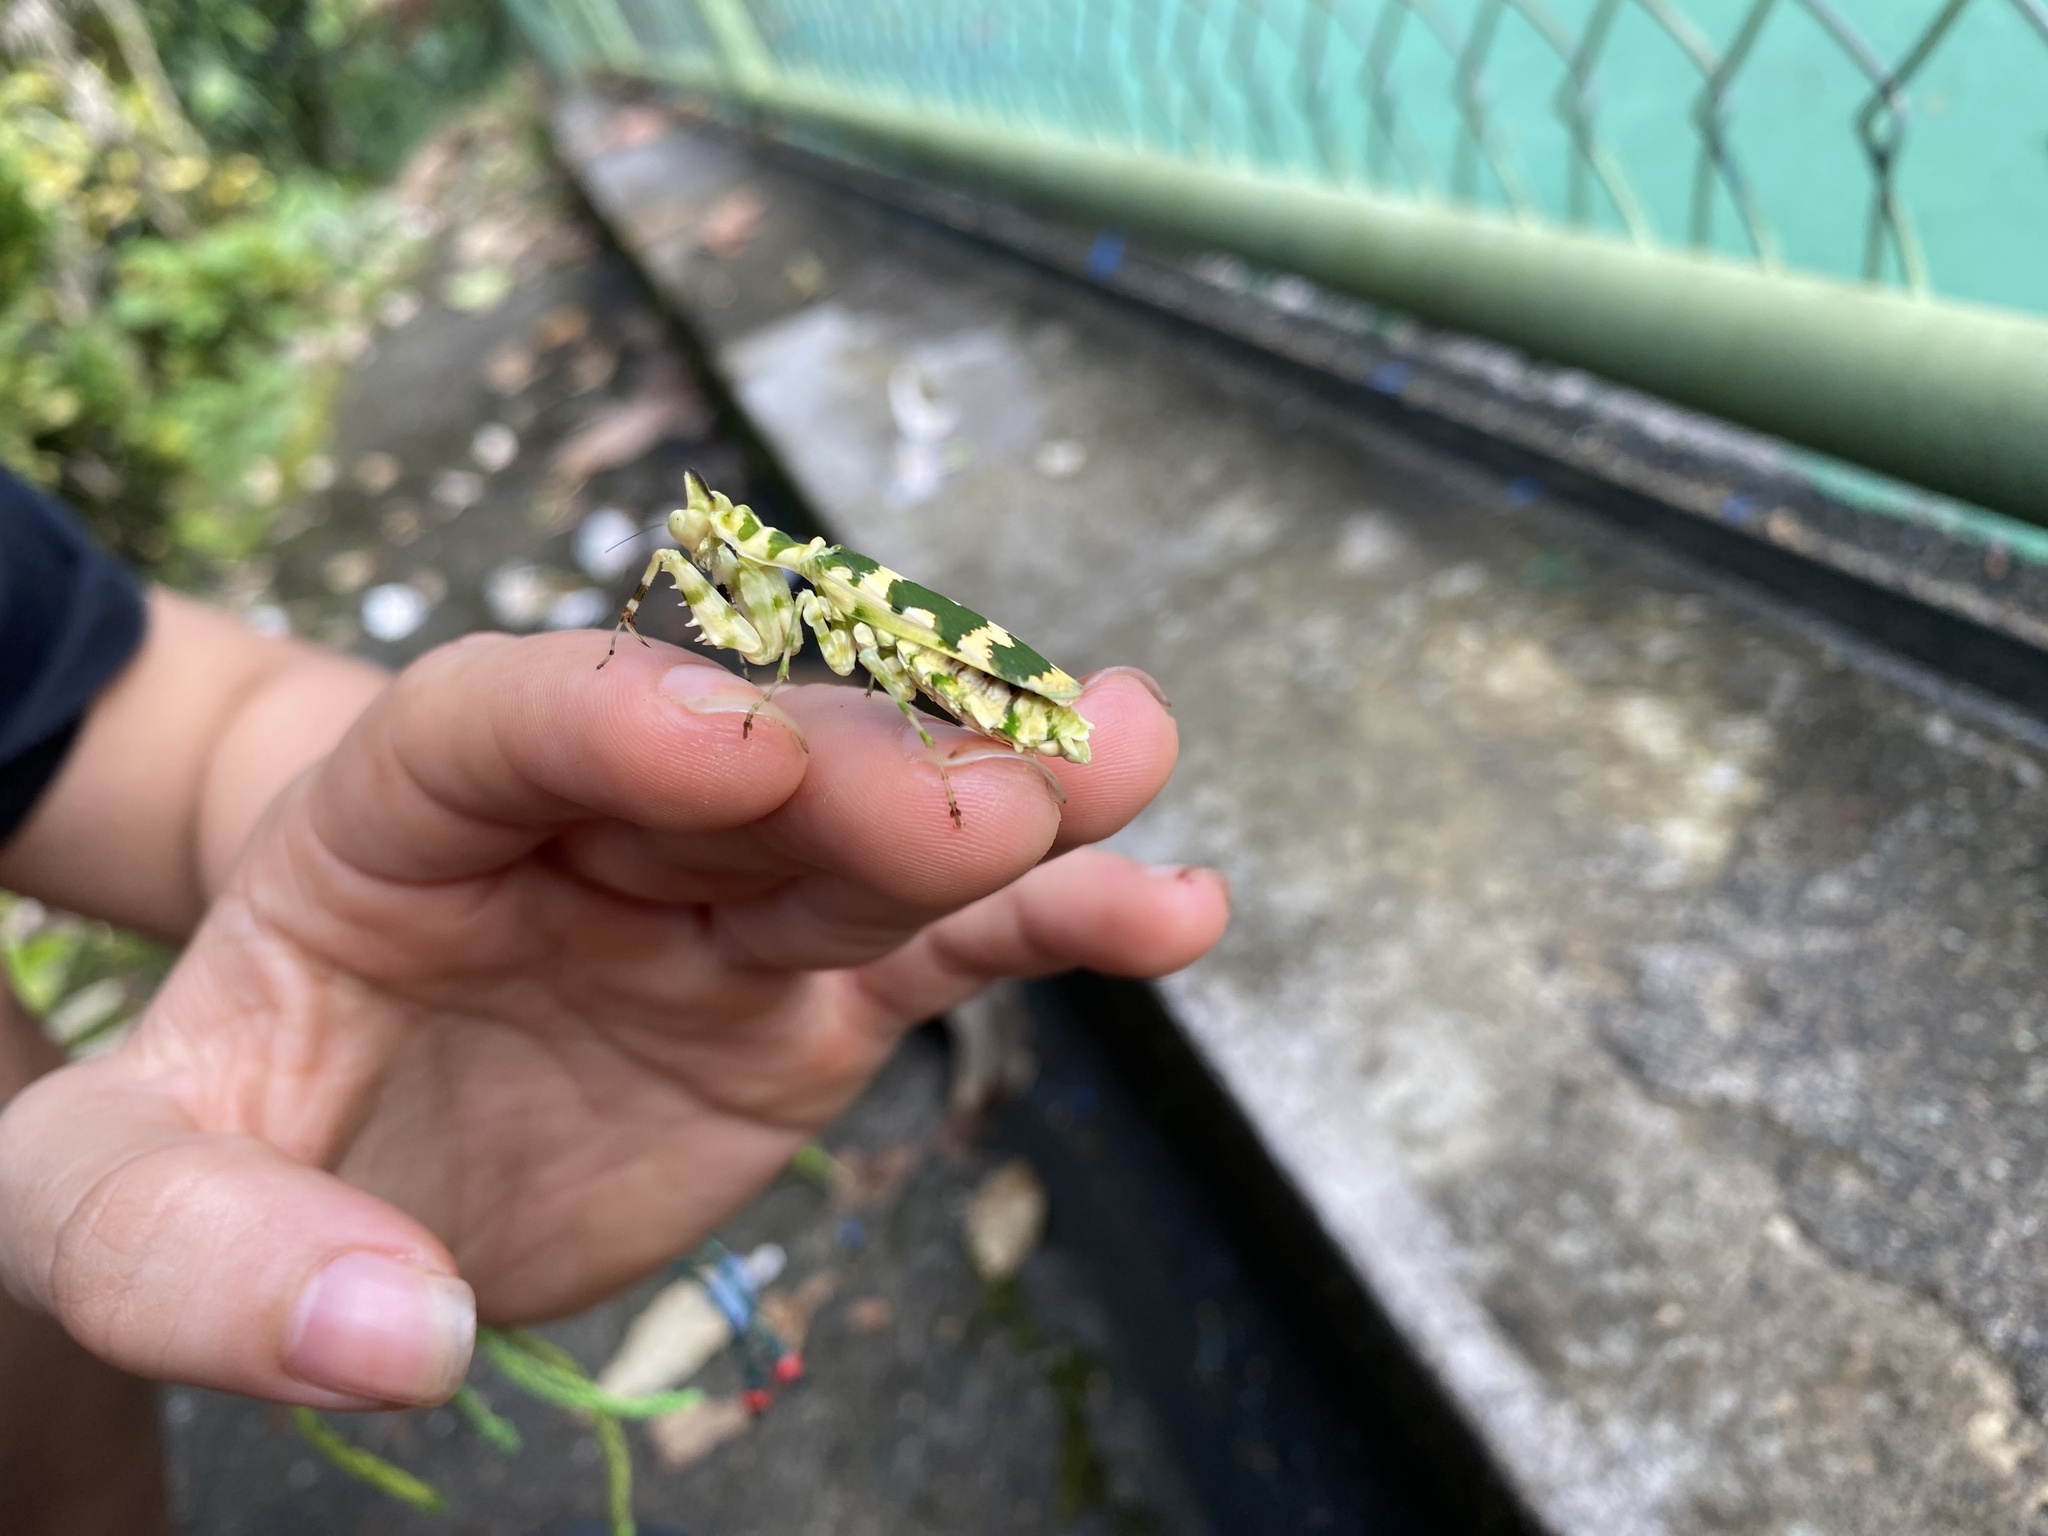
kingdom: Animalia
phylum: Arthropoda
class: Insecta
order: Mantodea
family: Acanthopidae
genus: Callibia
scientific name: Callibia diana
